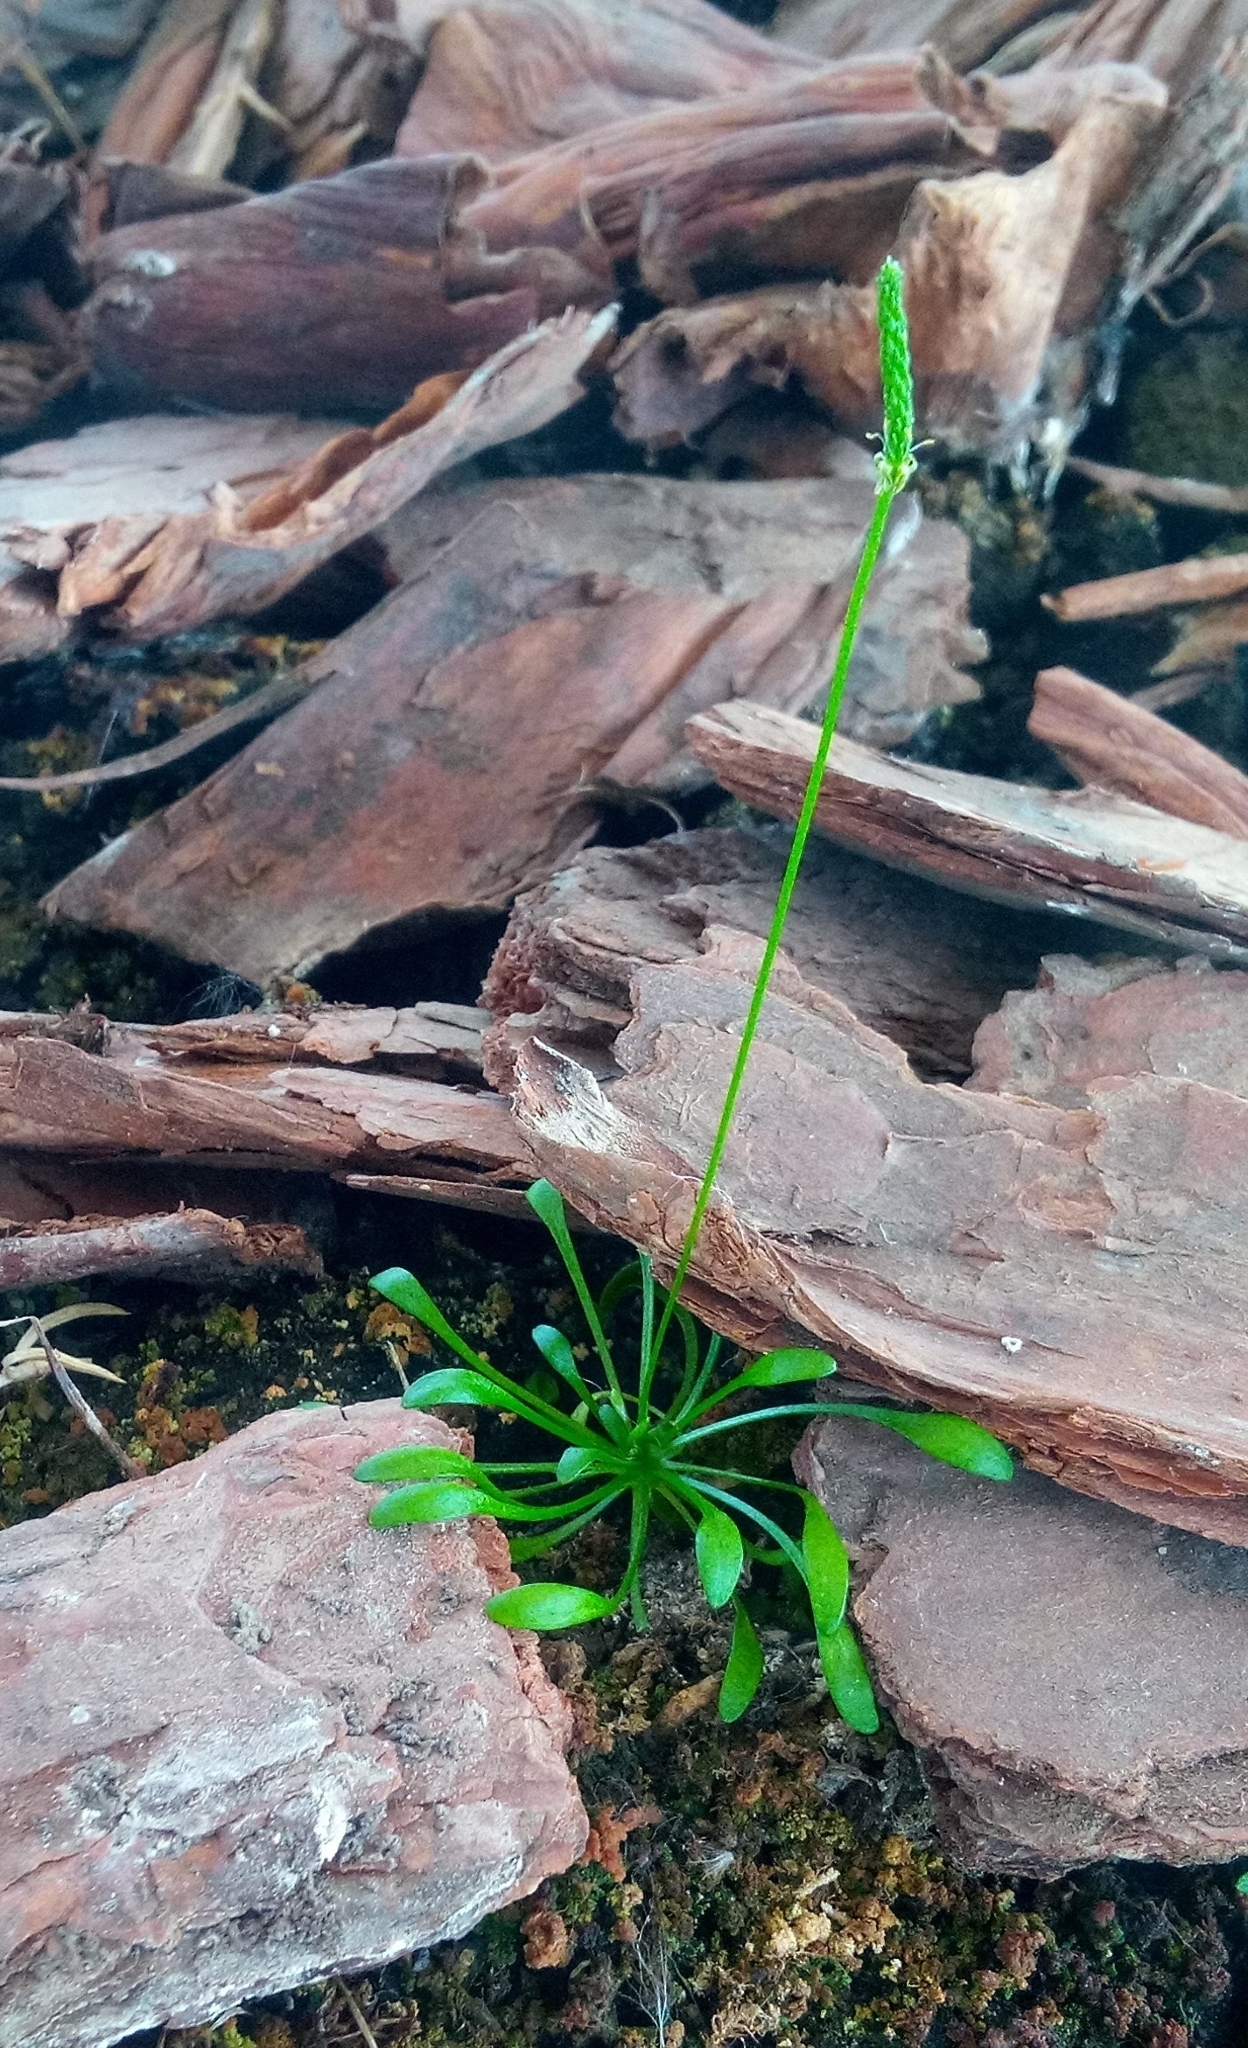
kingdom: Plantae
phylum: Tracheophyta
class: Magnoliopsida
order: Ranunculales
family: Ranunculaceae
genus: Myosurus
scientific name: Myosurus minimus
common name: Mousetail
